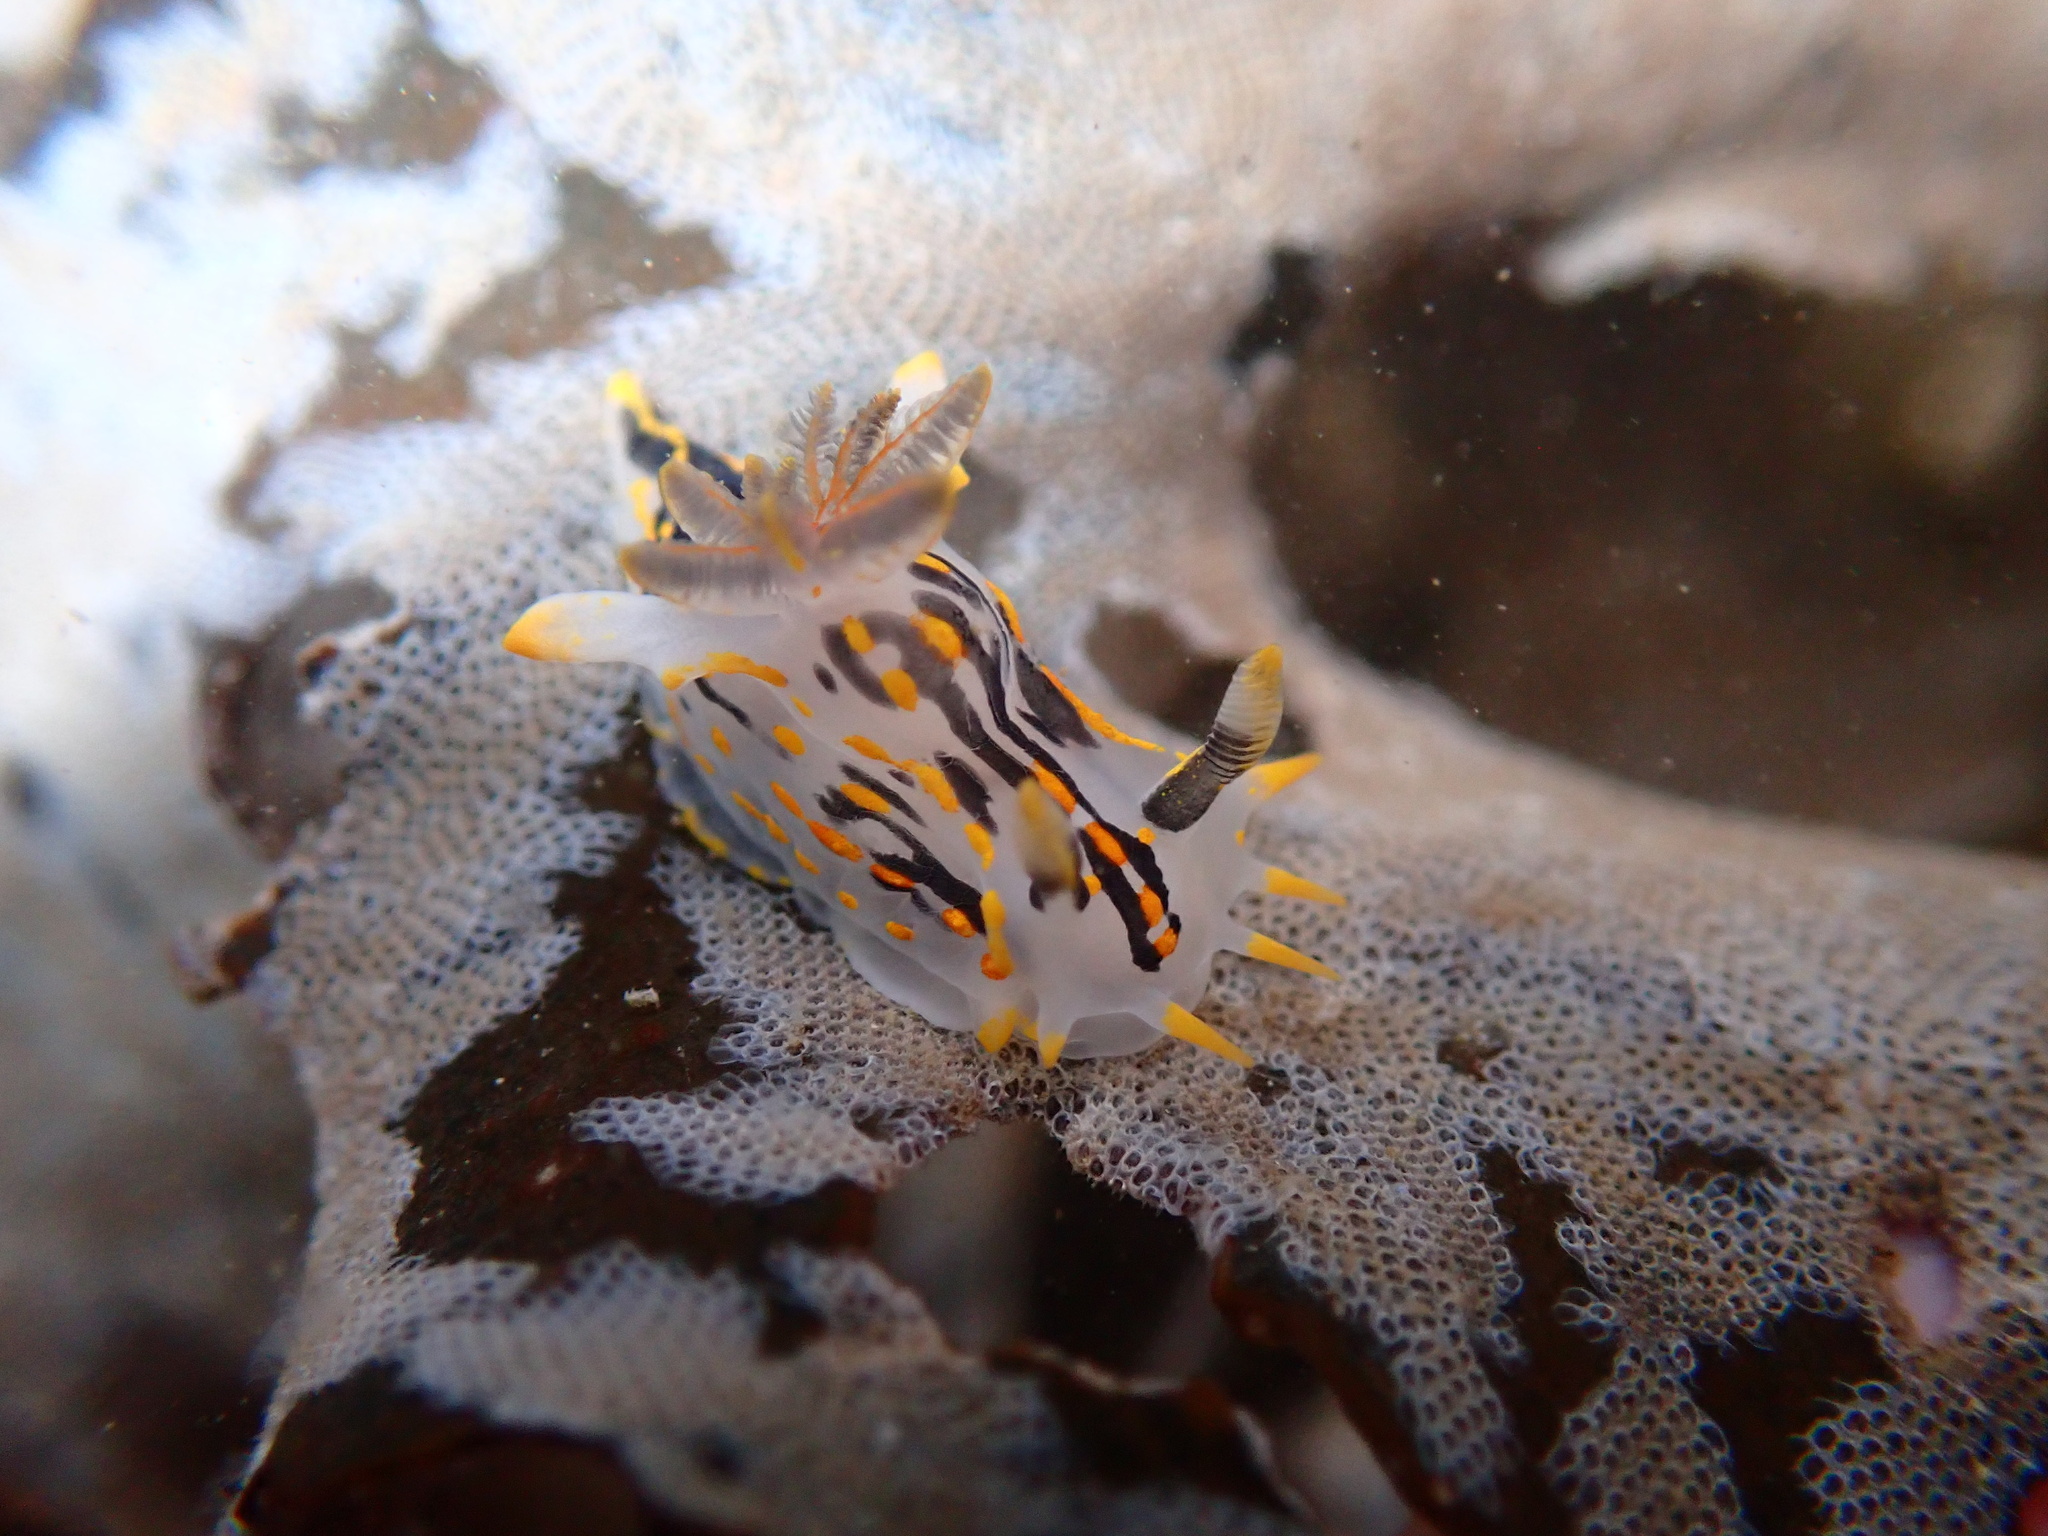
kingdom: Animalia
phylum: Mollusca
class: Gastropoda
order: Nudibranchia
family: Polyceridae
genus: Polycera
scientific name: Polycera quadrilineata
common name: Four-striped polycera
